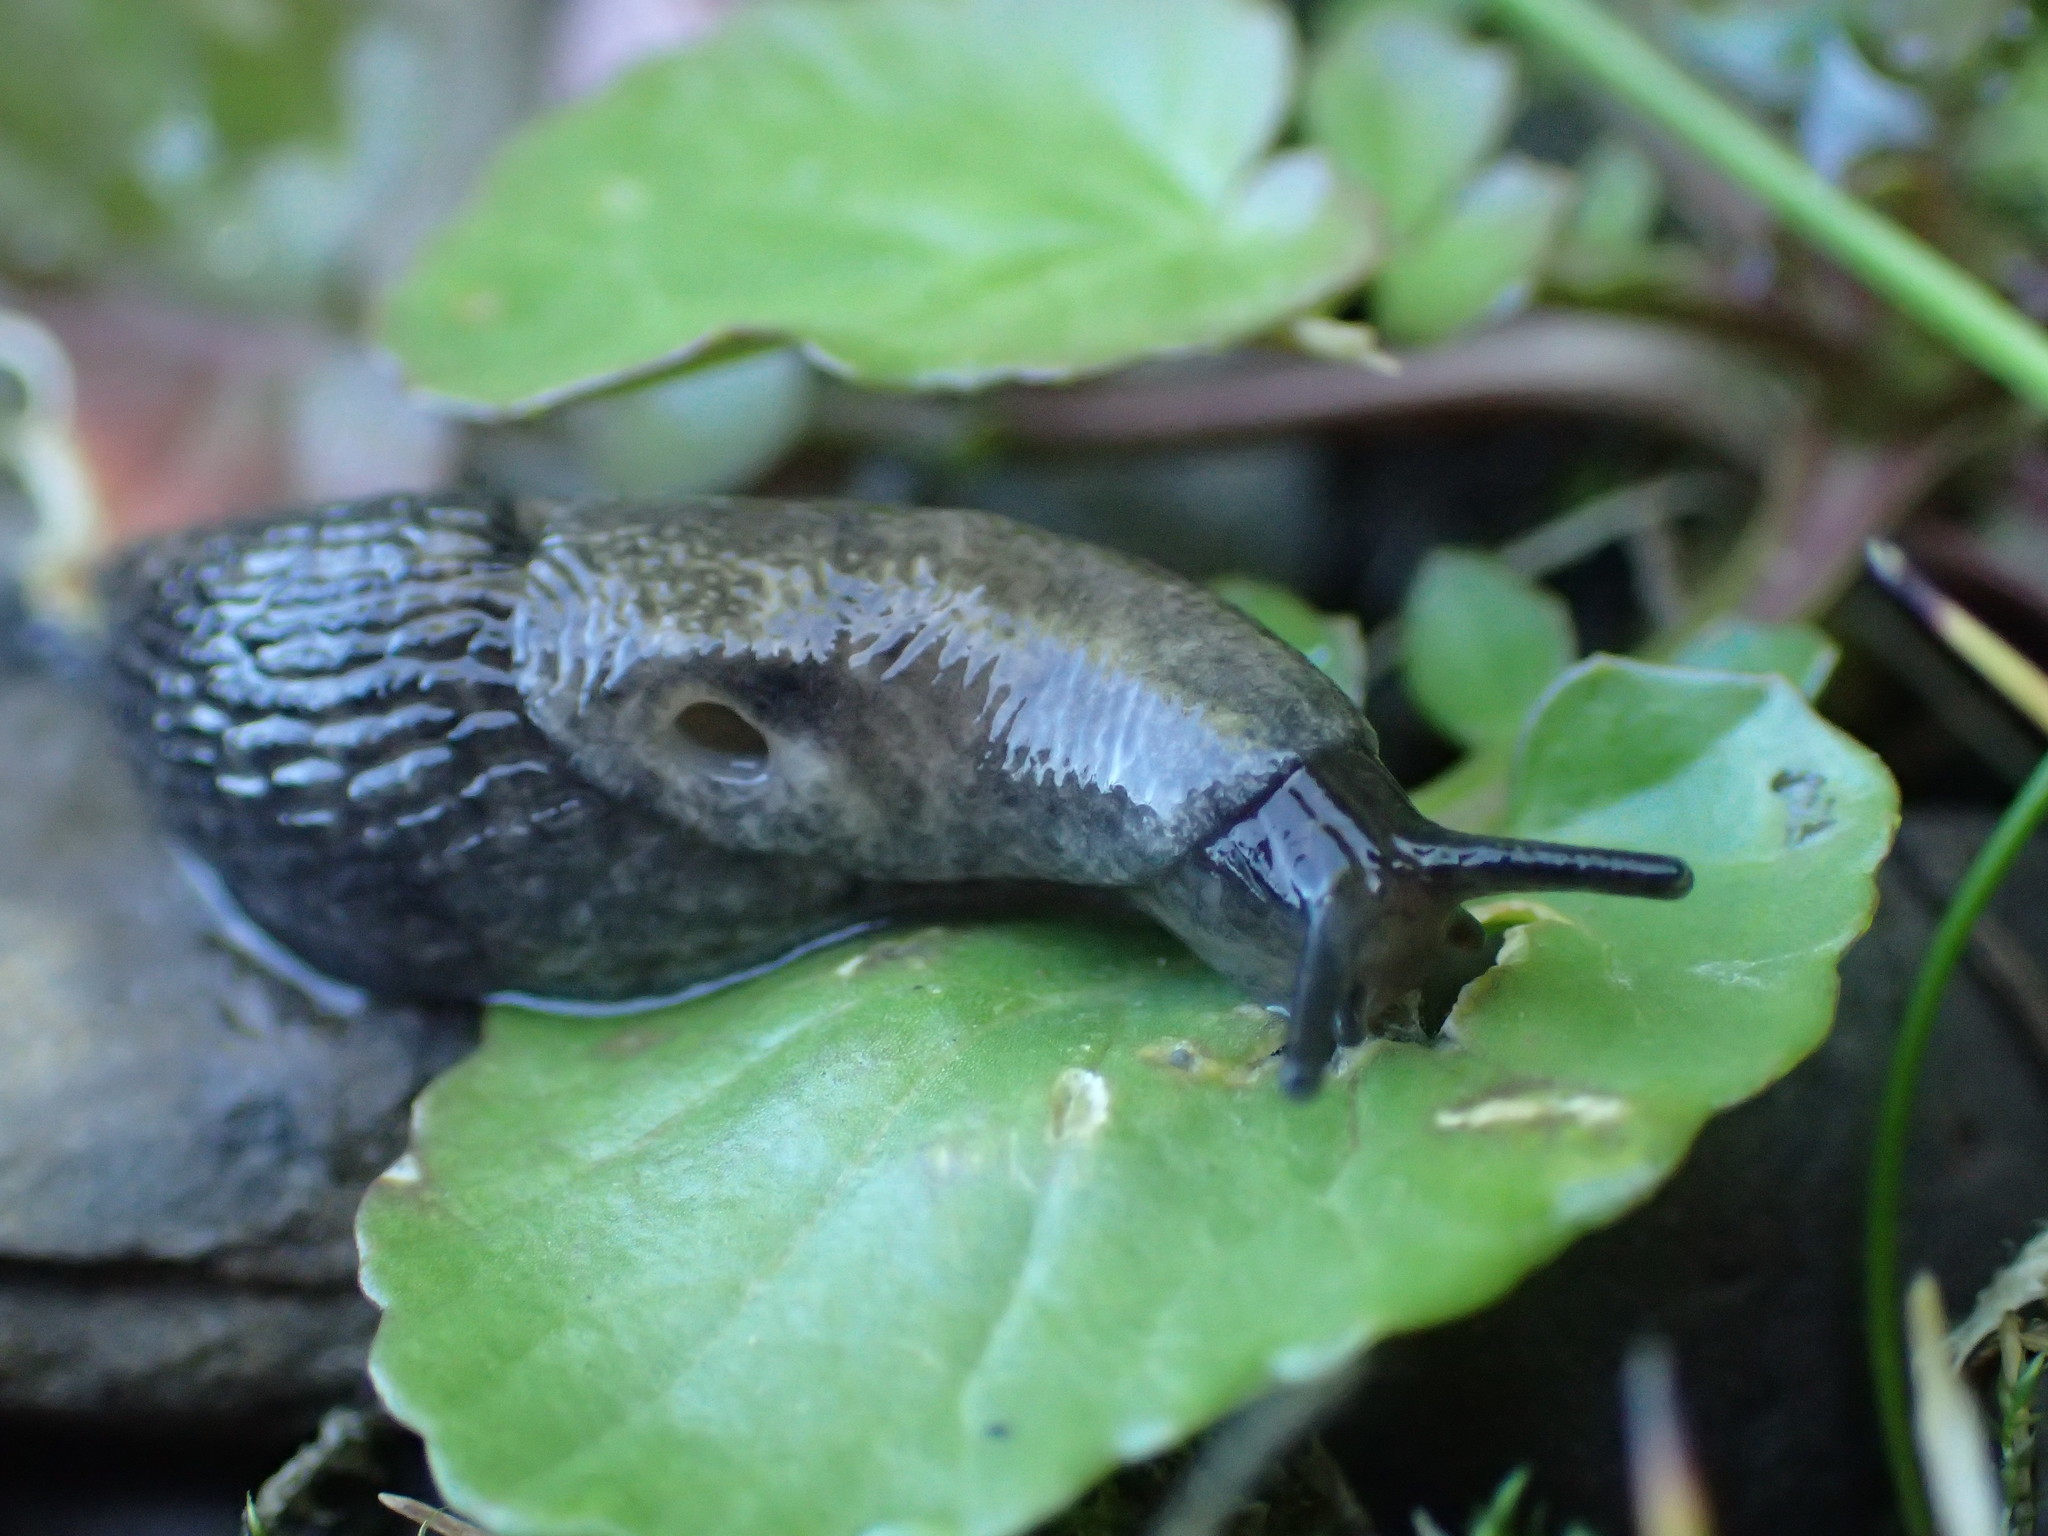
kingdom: Animalia
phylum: Mollusca
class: Gastropoda
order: Stylommatophora
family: Agriolimacidae
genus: Deroceras
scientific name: Deroceras reticulatum
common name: Gray field slug
